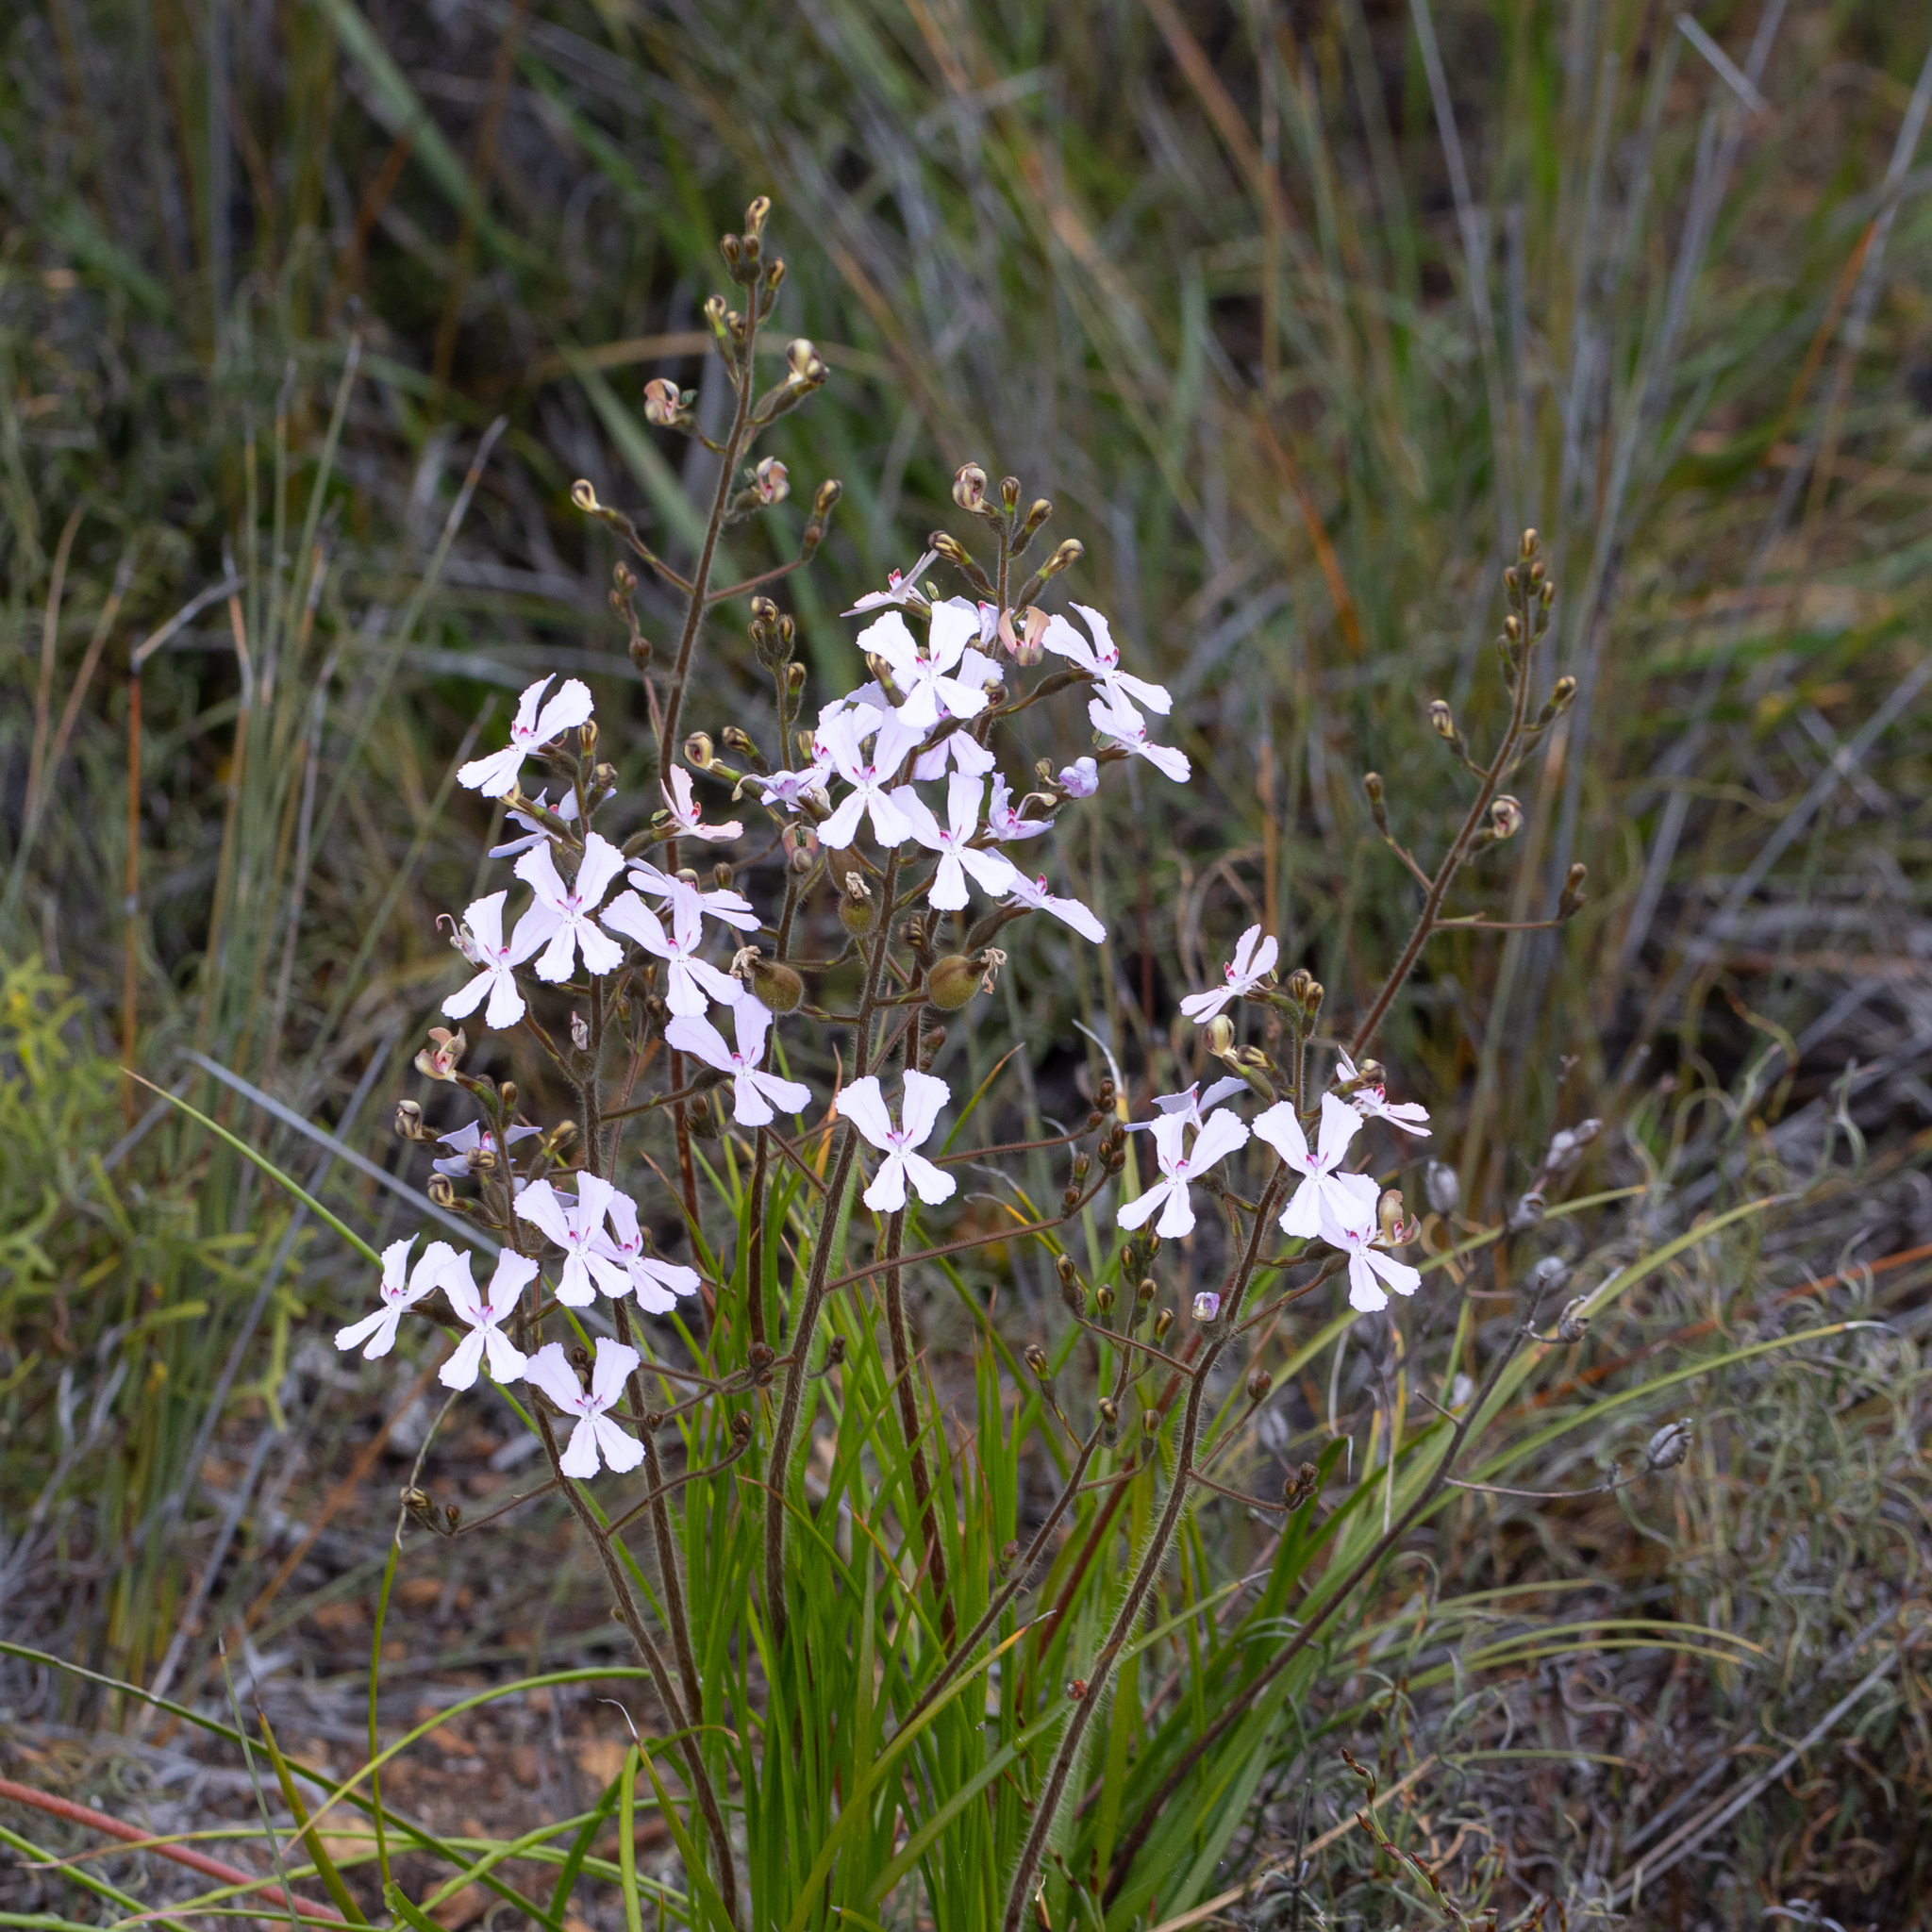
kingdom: Plantae
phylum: Tracheophyta
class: Magnoliopsida
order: Asterales
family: Stylidiaceae
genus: Stylidium
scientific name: Stylidium pilosum
